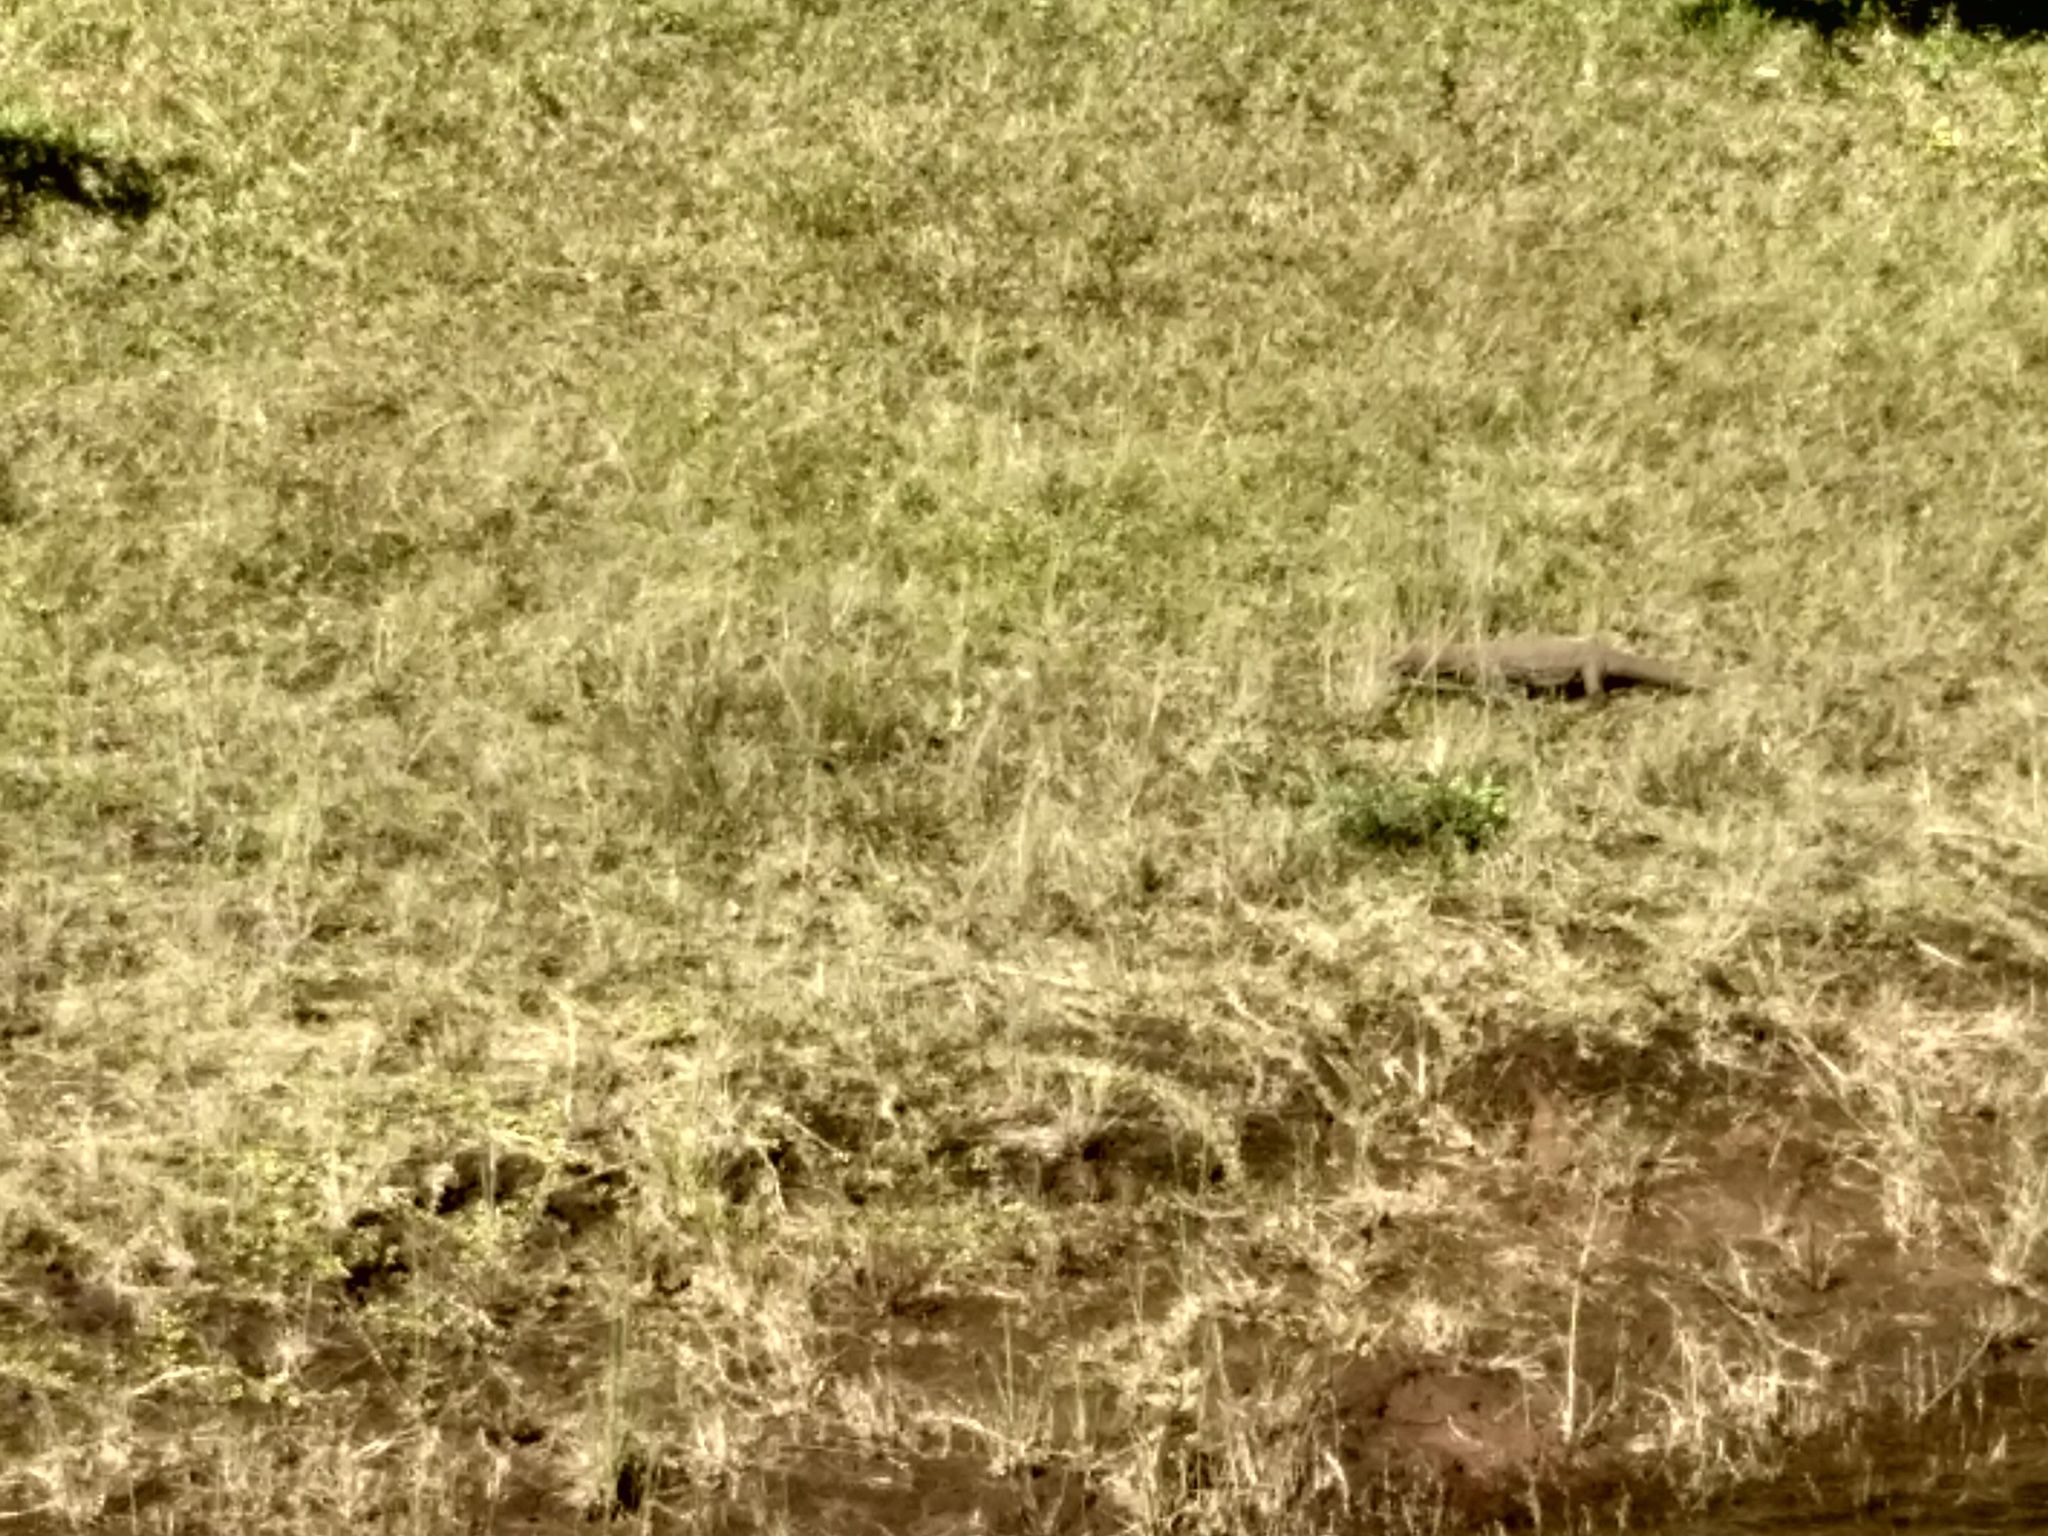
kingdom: Animalia
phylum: Chordata
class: Squamata
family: Varanidae
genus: Varanus
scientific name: Varanus bengalensis
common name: Bengal monitor
